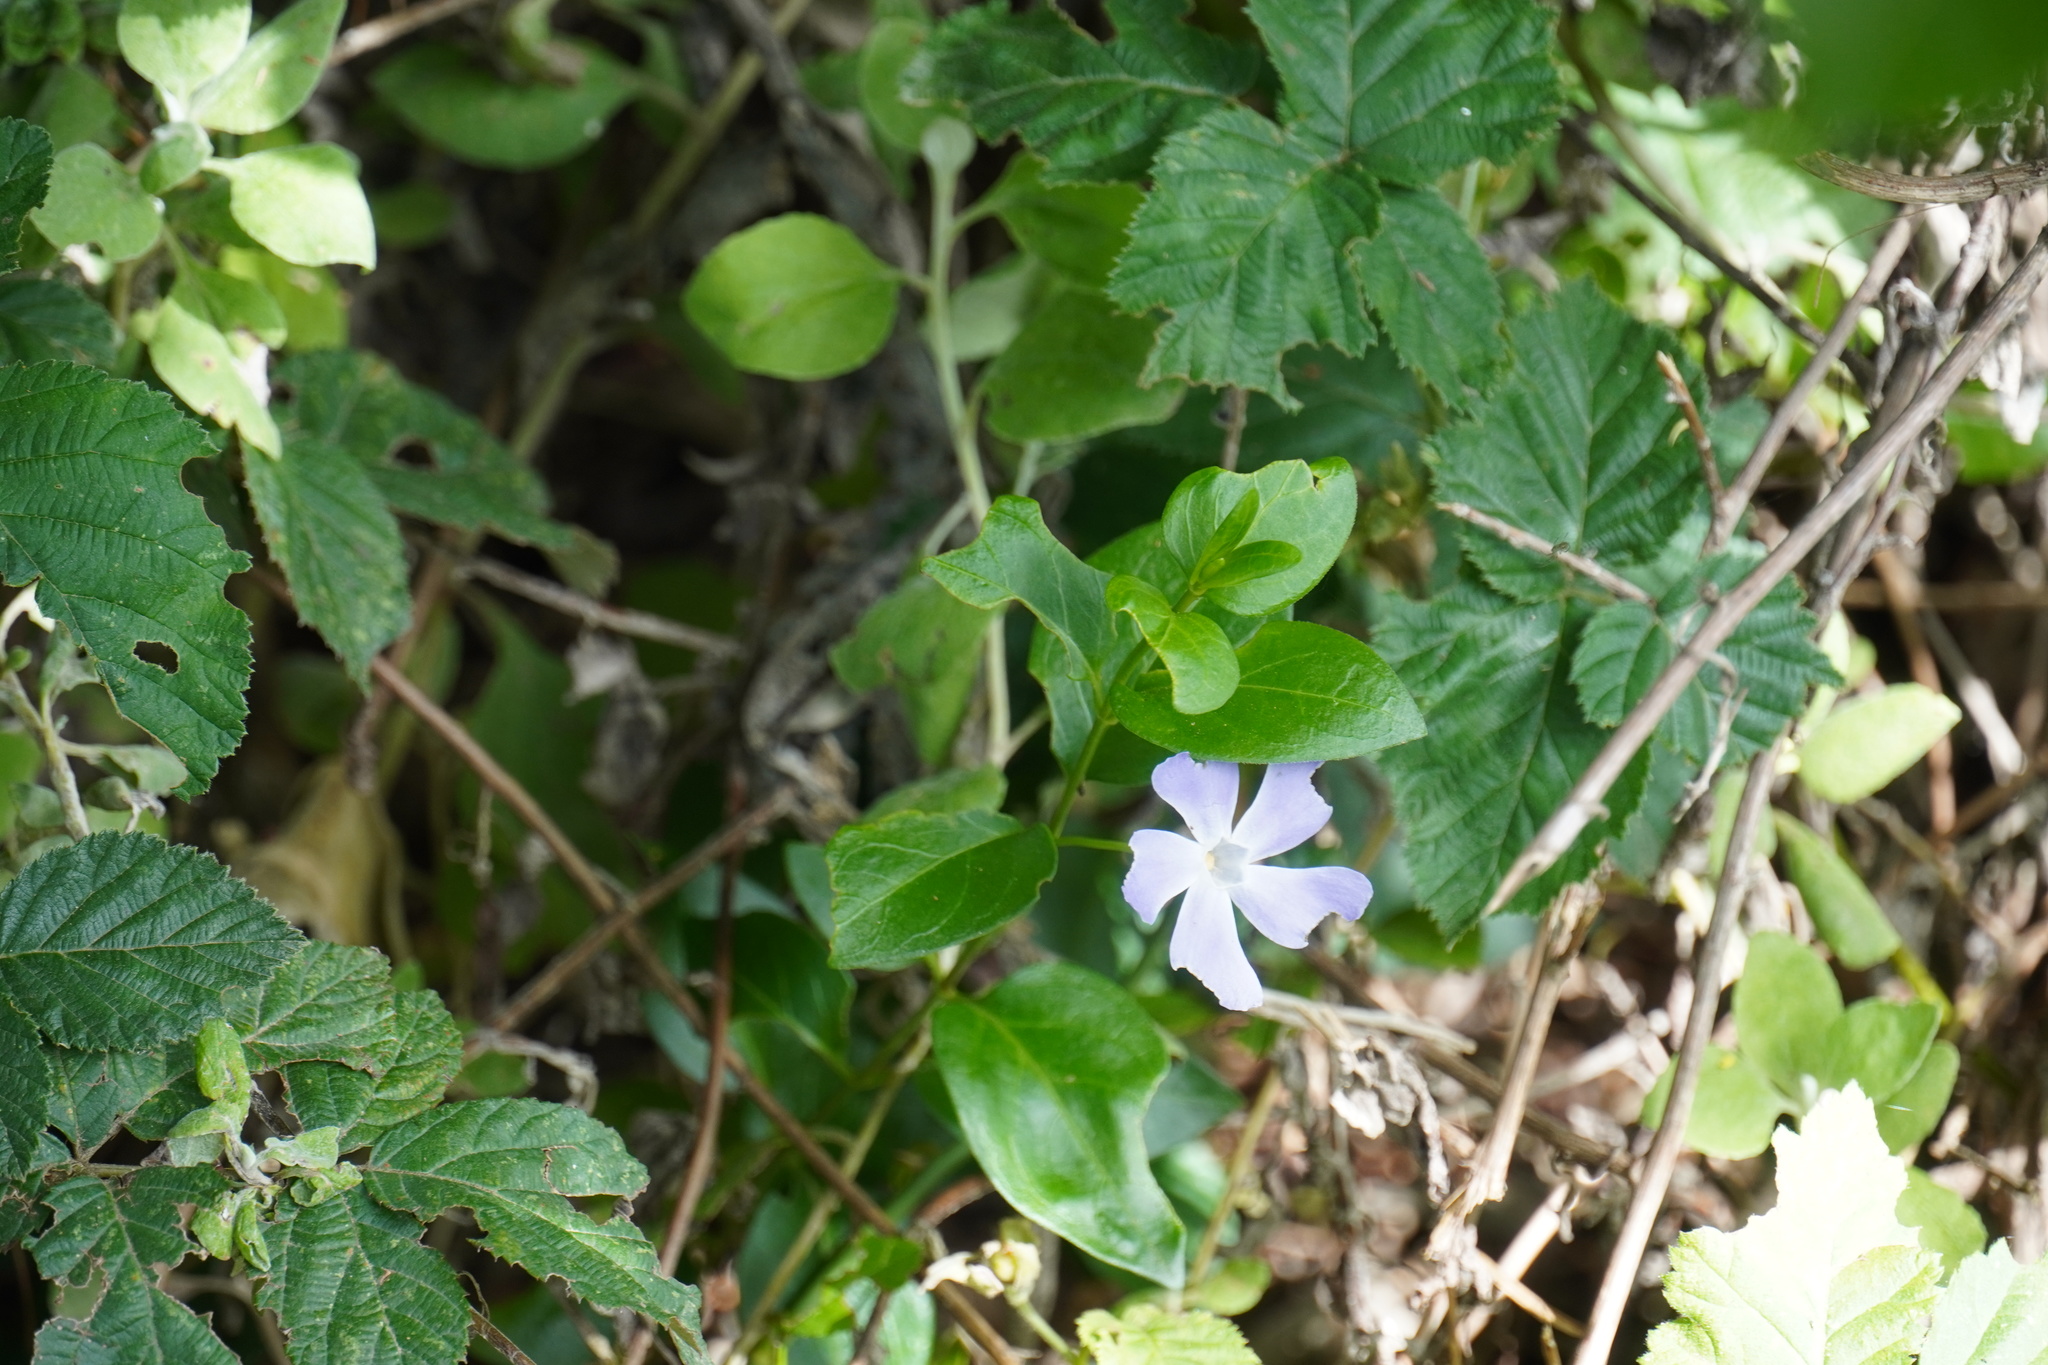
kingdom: Plantae
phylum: Tracheophyta
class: Magnoliopsida
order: Gentianales
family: Apocynaceae
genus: Vinca
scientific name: Vinca major
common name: Greater periwinkle
